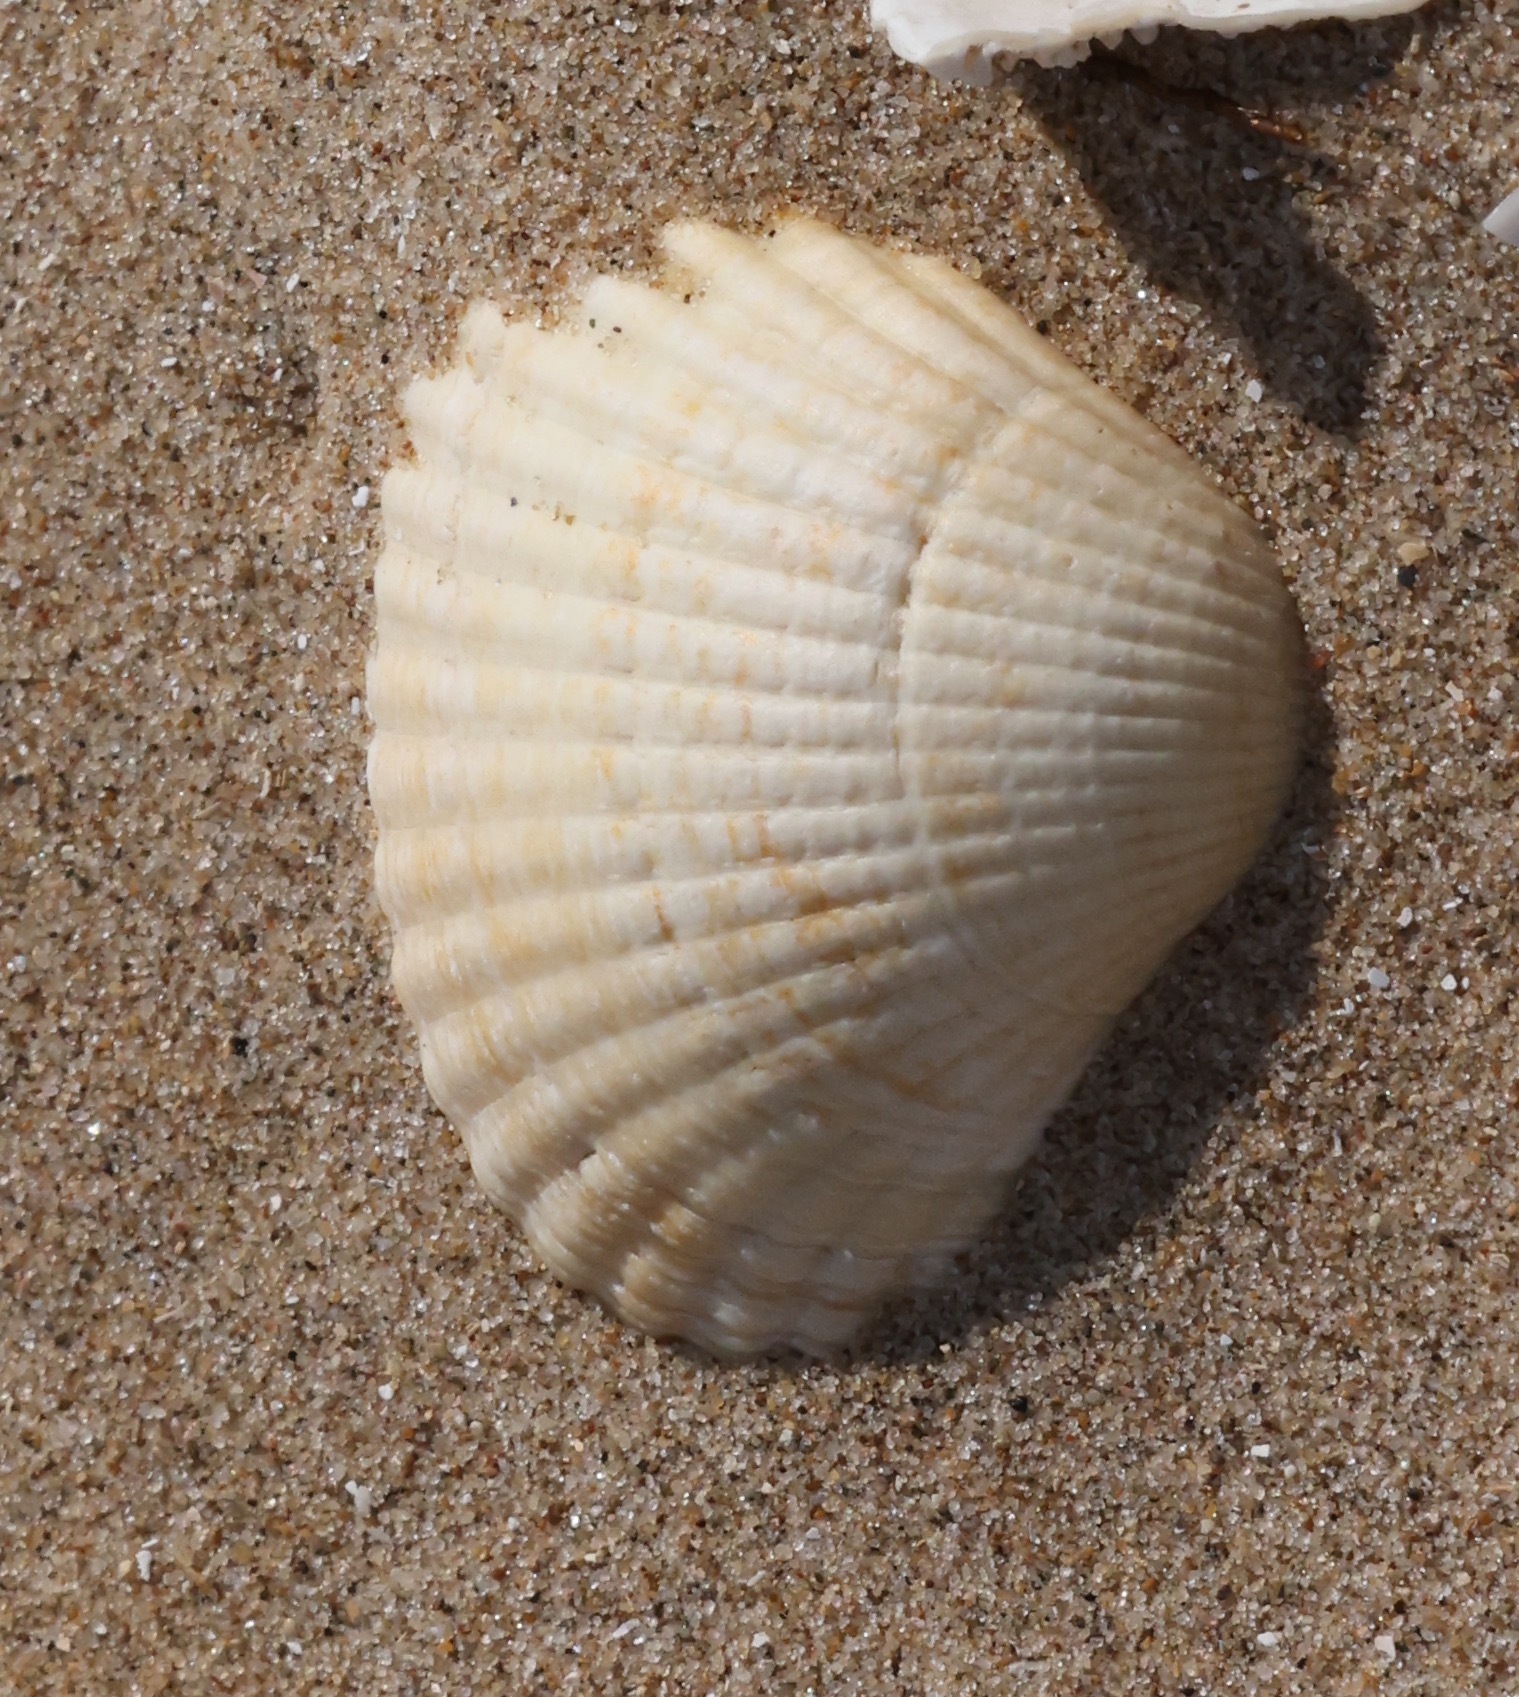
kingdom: Animalia
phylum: Mollusca
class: Bivalvia
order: Cardiida
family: Cardiidae
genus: Cerastoderma
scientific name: Cerastoderma edule
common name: Common cockle
